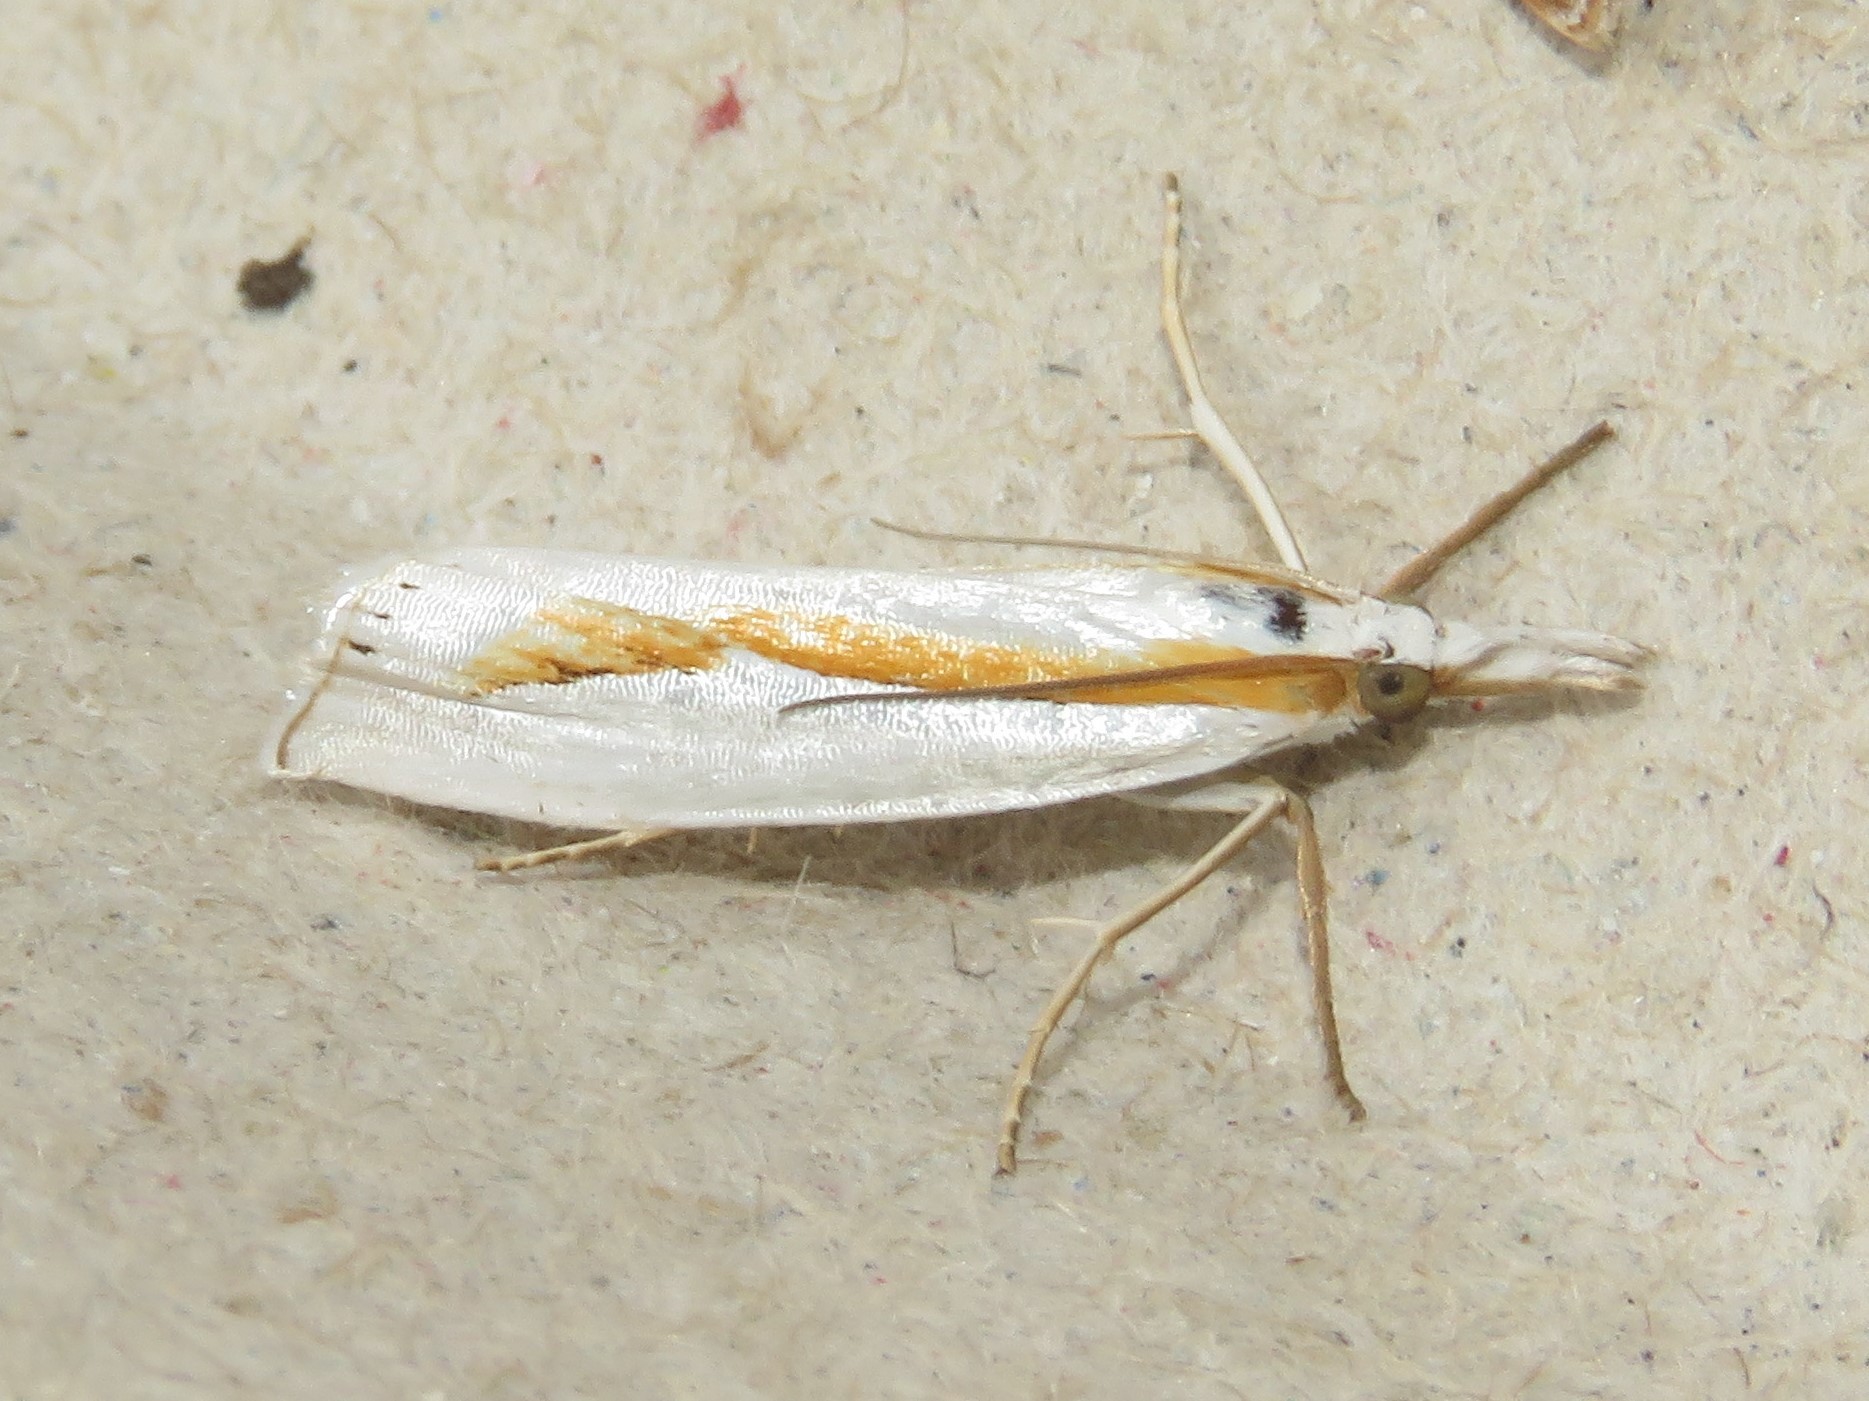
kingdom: Animalia
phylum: Arthropoda
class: Insecta
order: Lepidoptera
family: Crambidae
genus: Crambus
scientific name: Crambus girardellus
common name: Girard's grass-veneer
